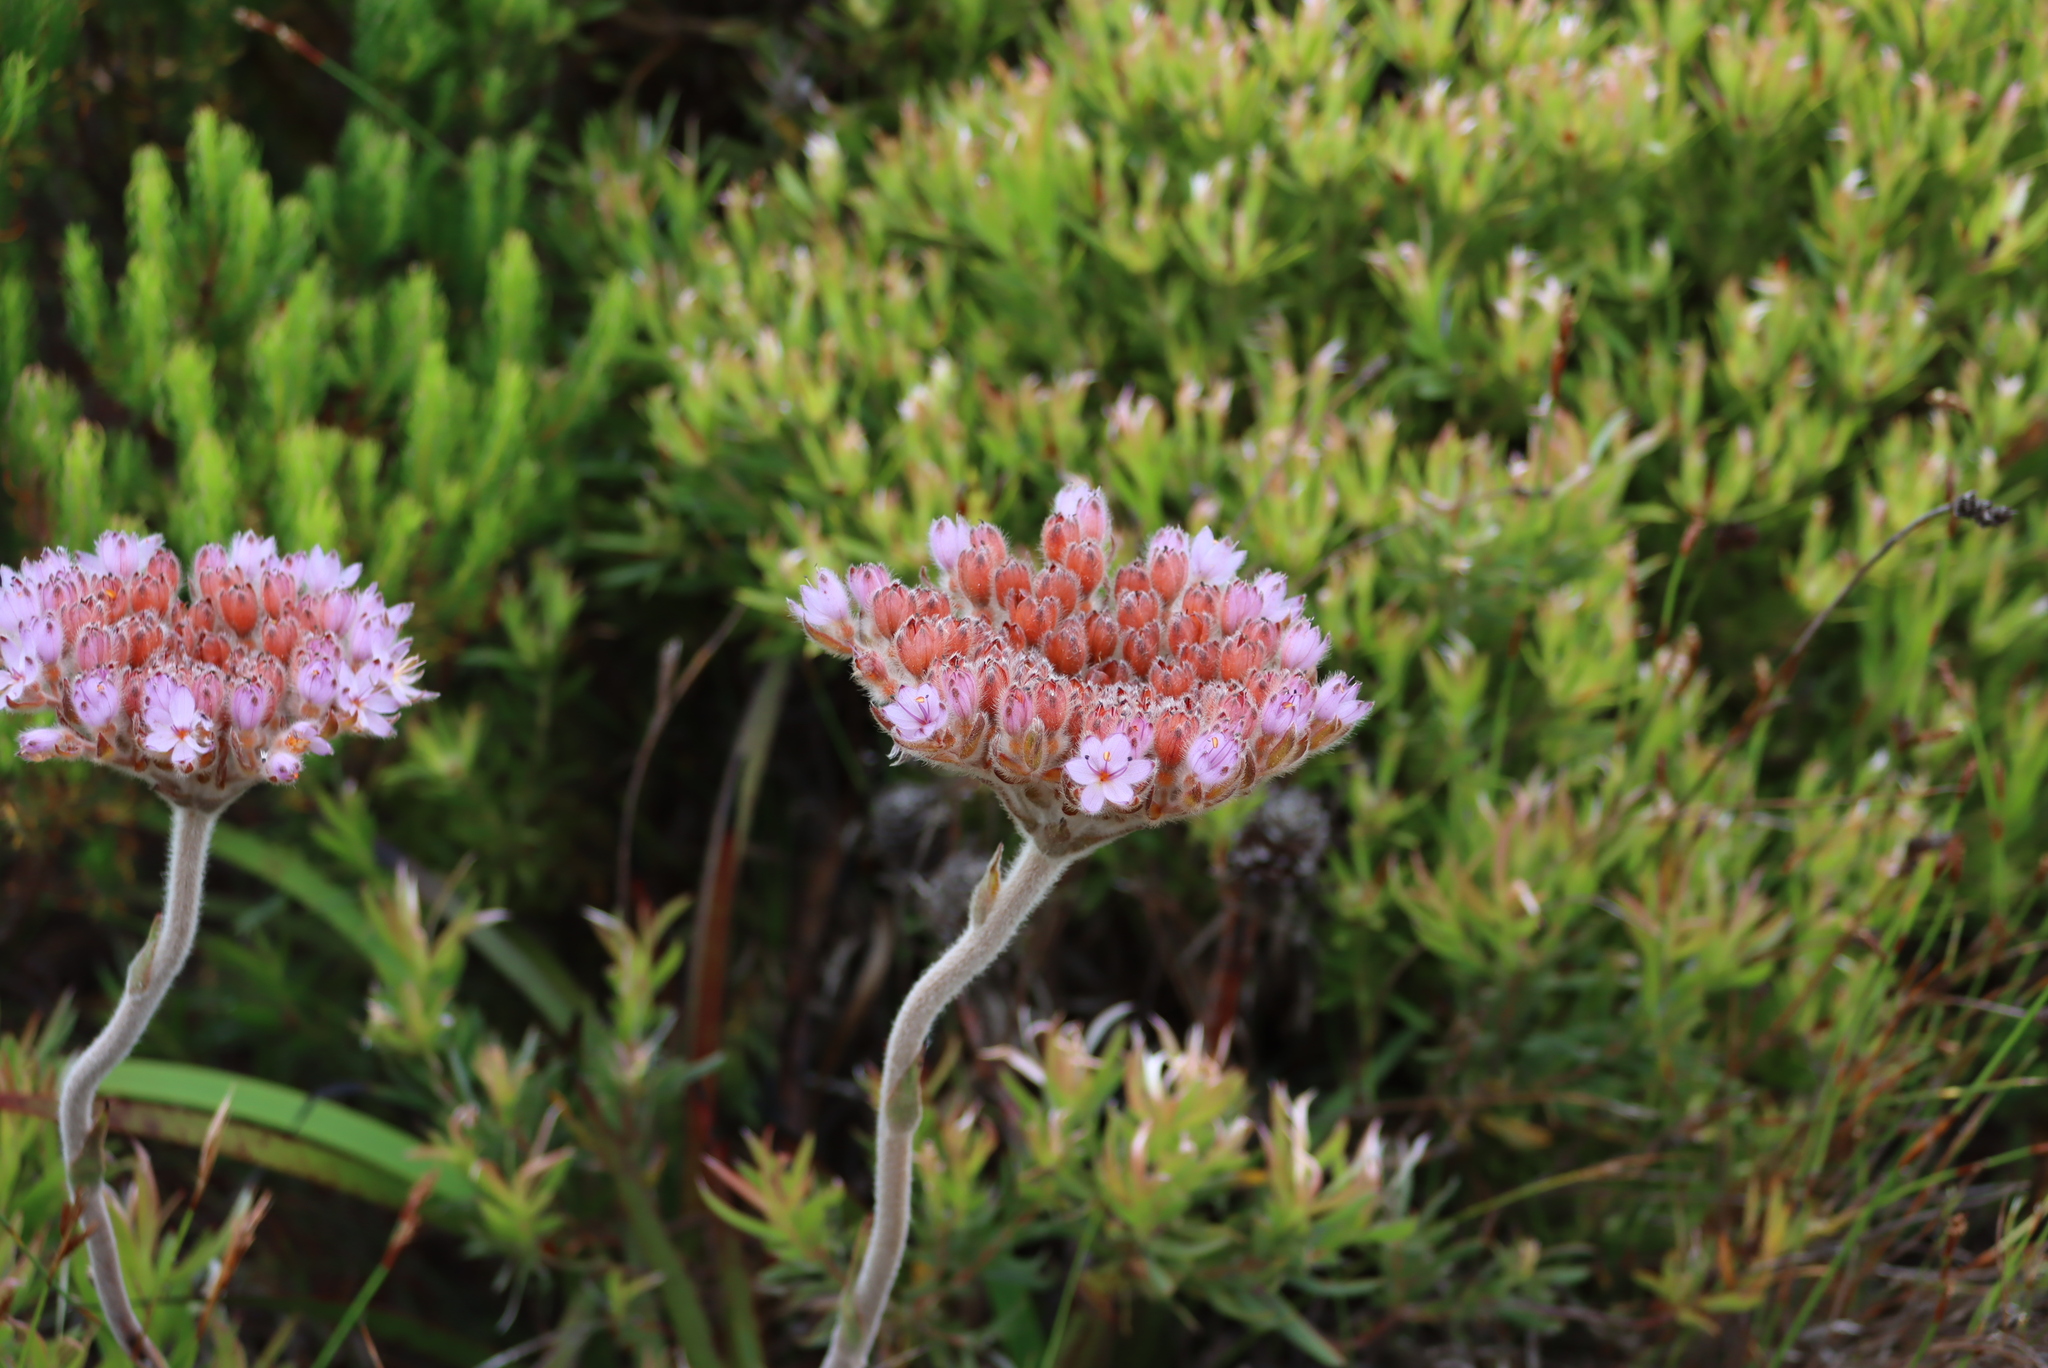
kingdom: Plantae
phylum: Tracheophyta
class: Liliopsida
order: Commelinales
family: Haemodoraceae
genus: Dilatris
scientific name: Dilatris pillansii
